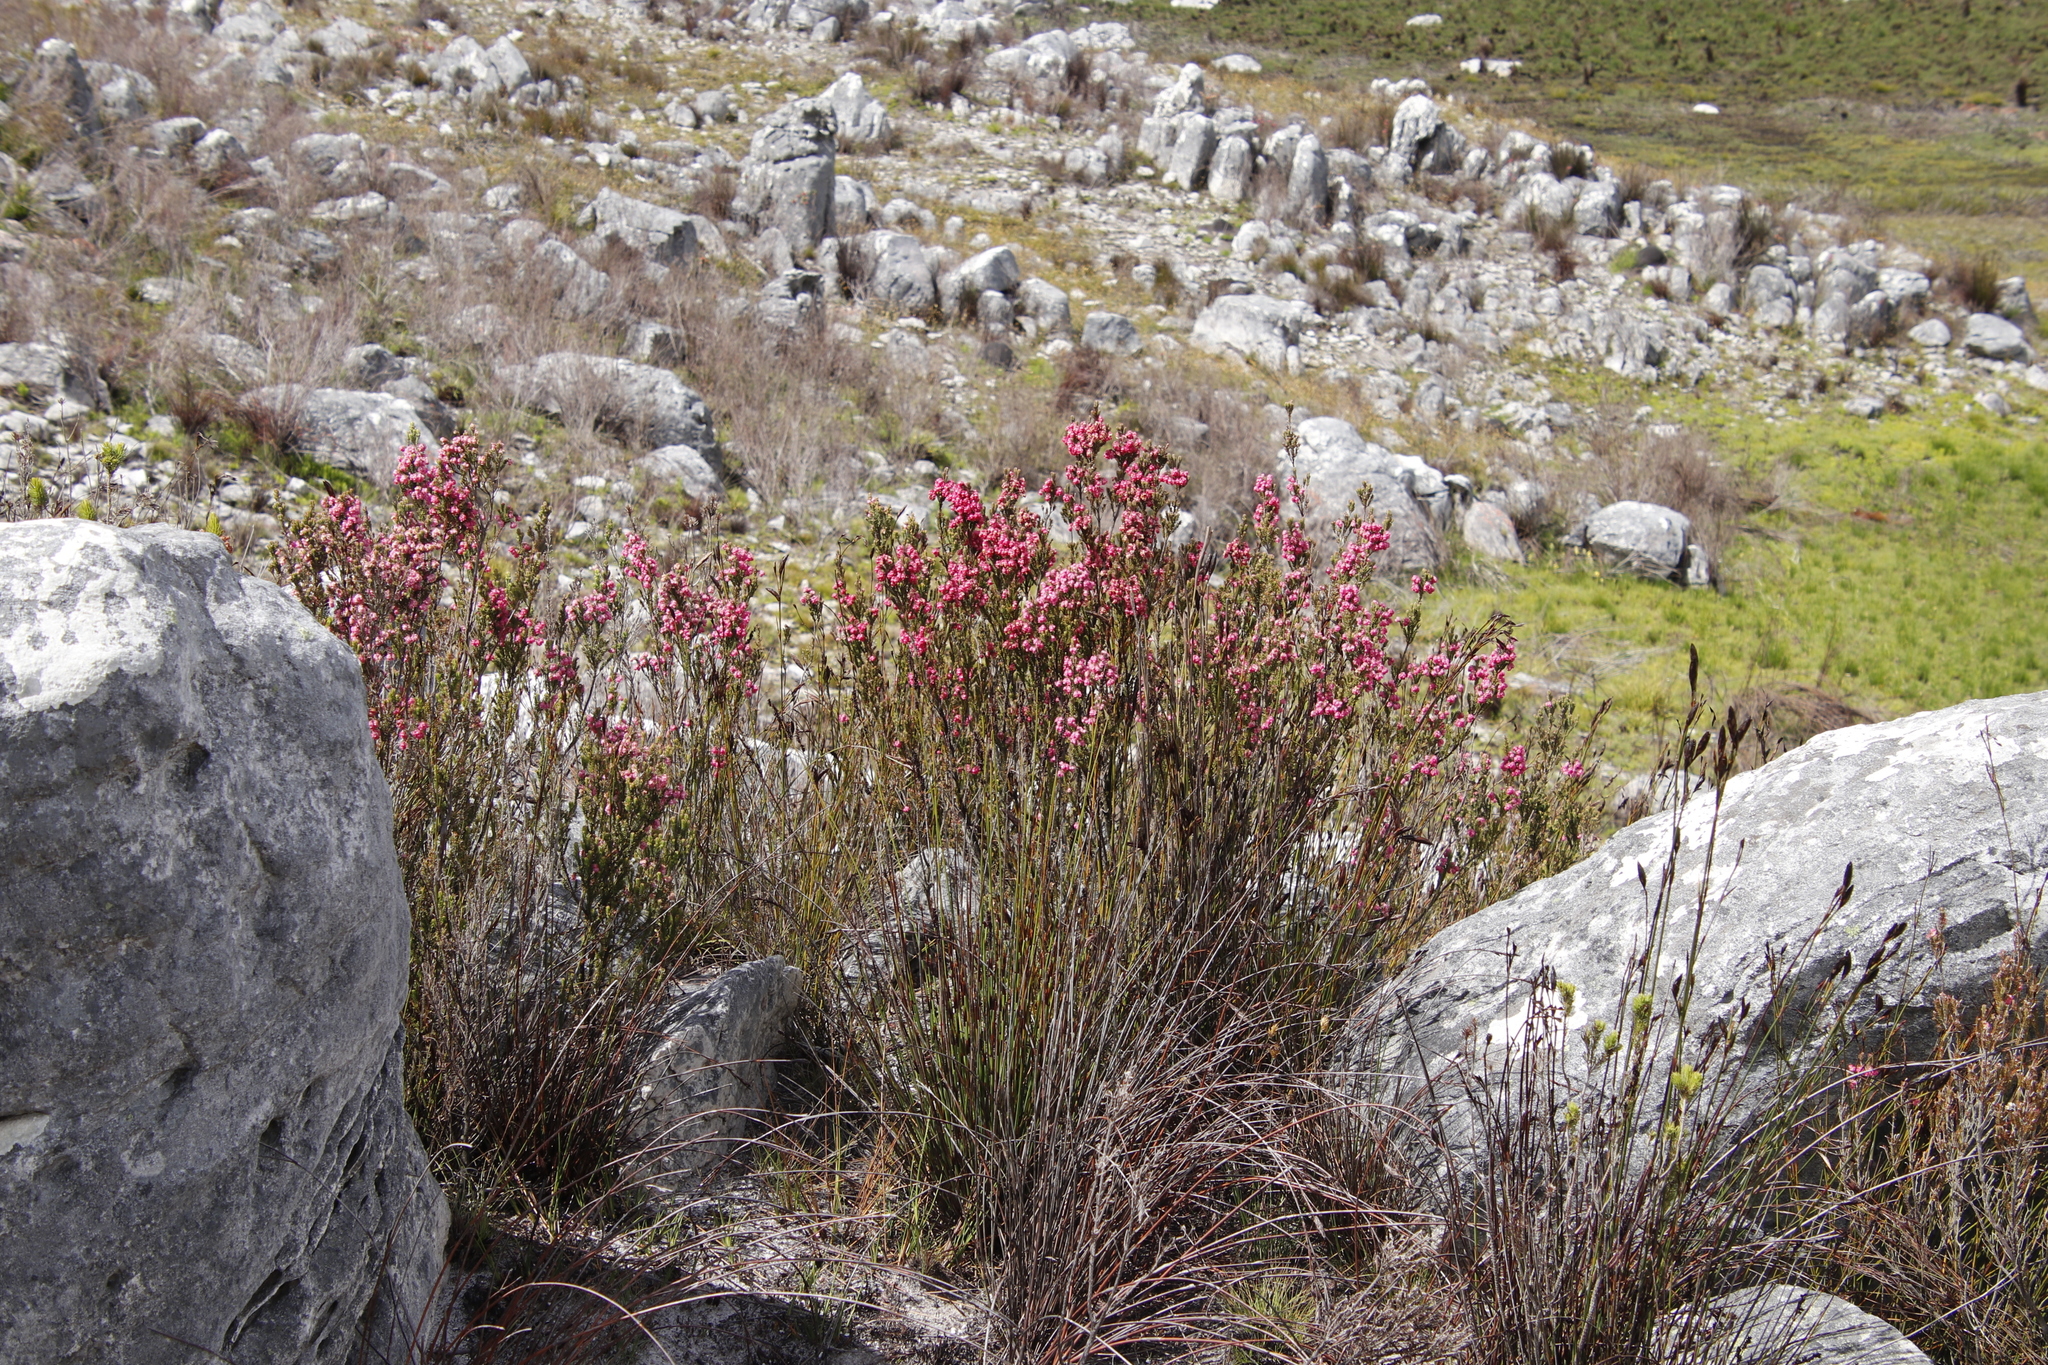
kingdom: Plantae
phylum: Tracheophyta
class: Magnoliopsida
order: Ericales
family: Ericaceae
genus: Erica
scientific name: Erica tegulifolia
